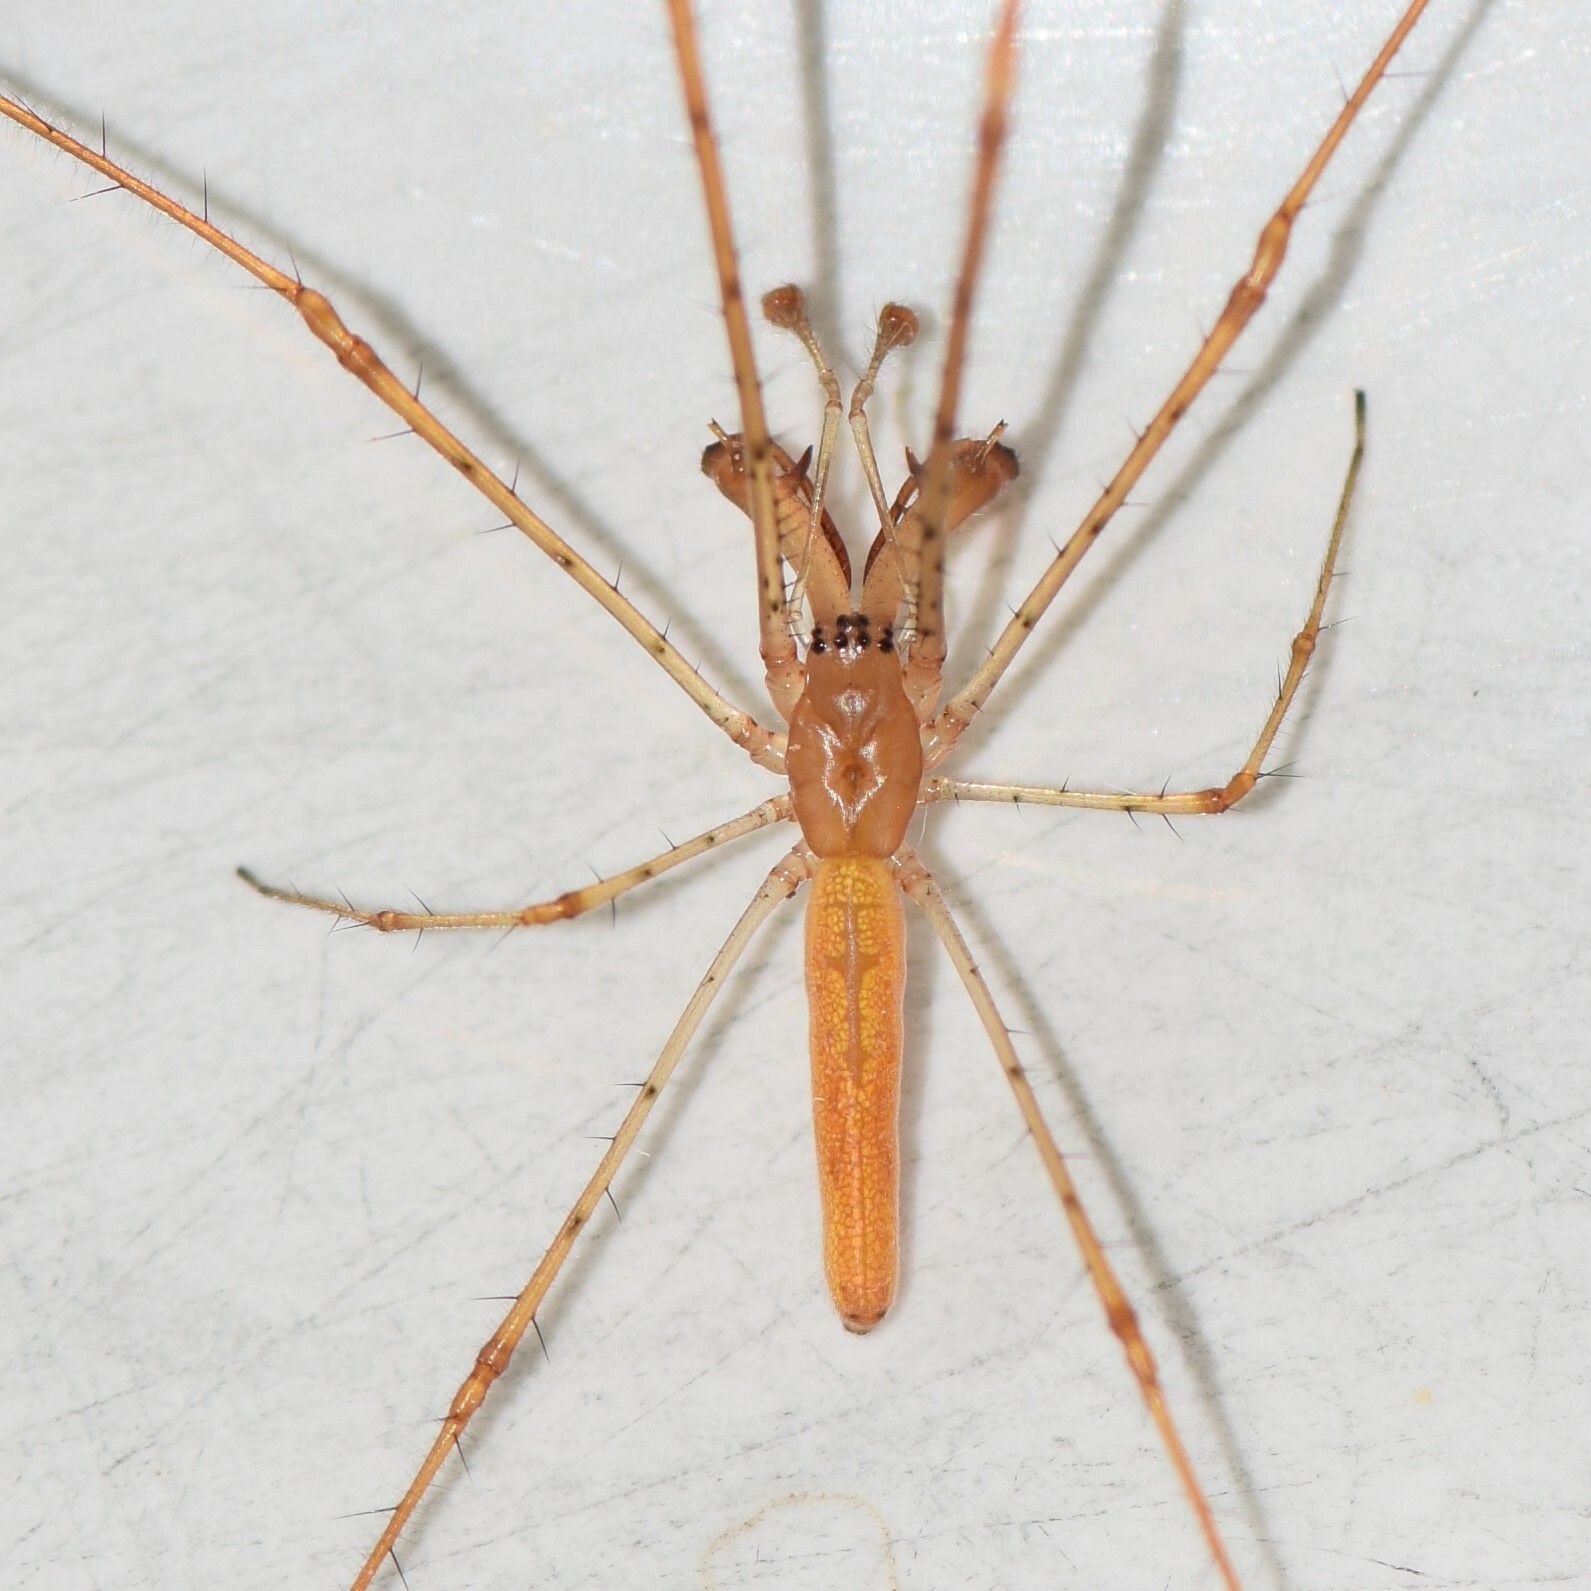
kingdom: Animalia
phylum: Arthropoda
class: Arachnida
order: Araneae
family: Tetragnathidae
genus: Tetragnatha
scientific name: Tetragnatha elongata
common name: Longjawed orb weavers
